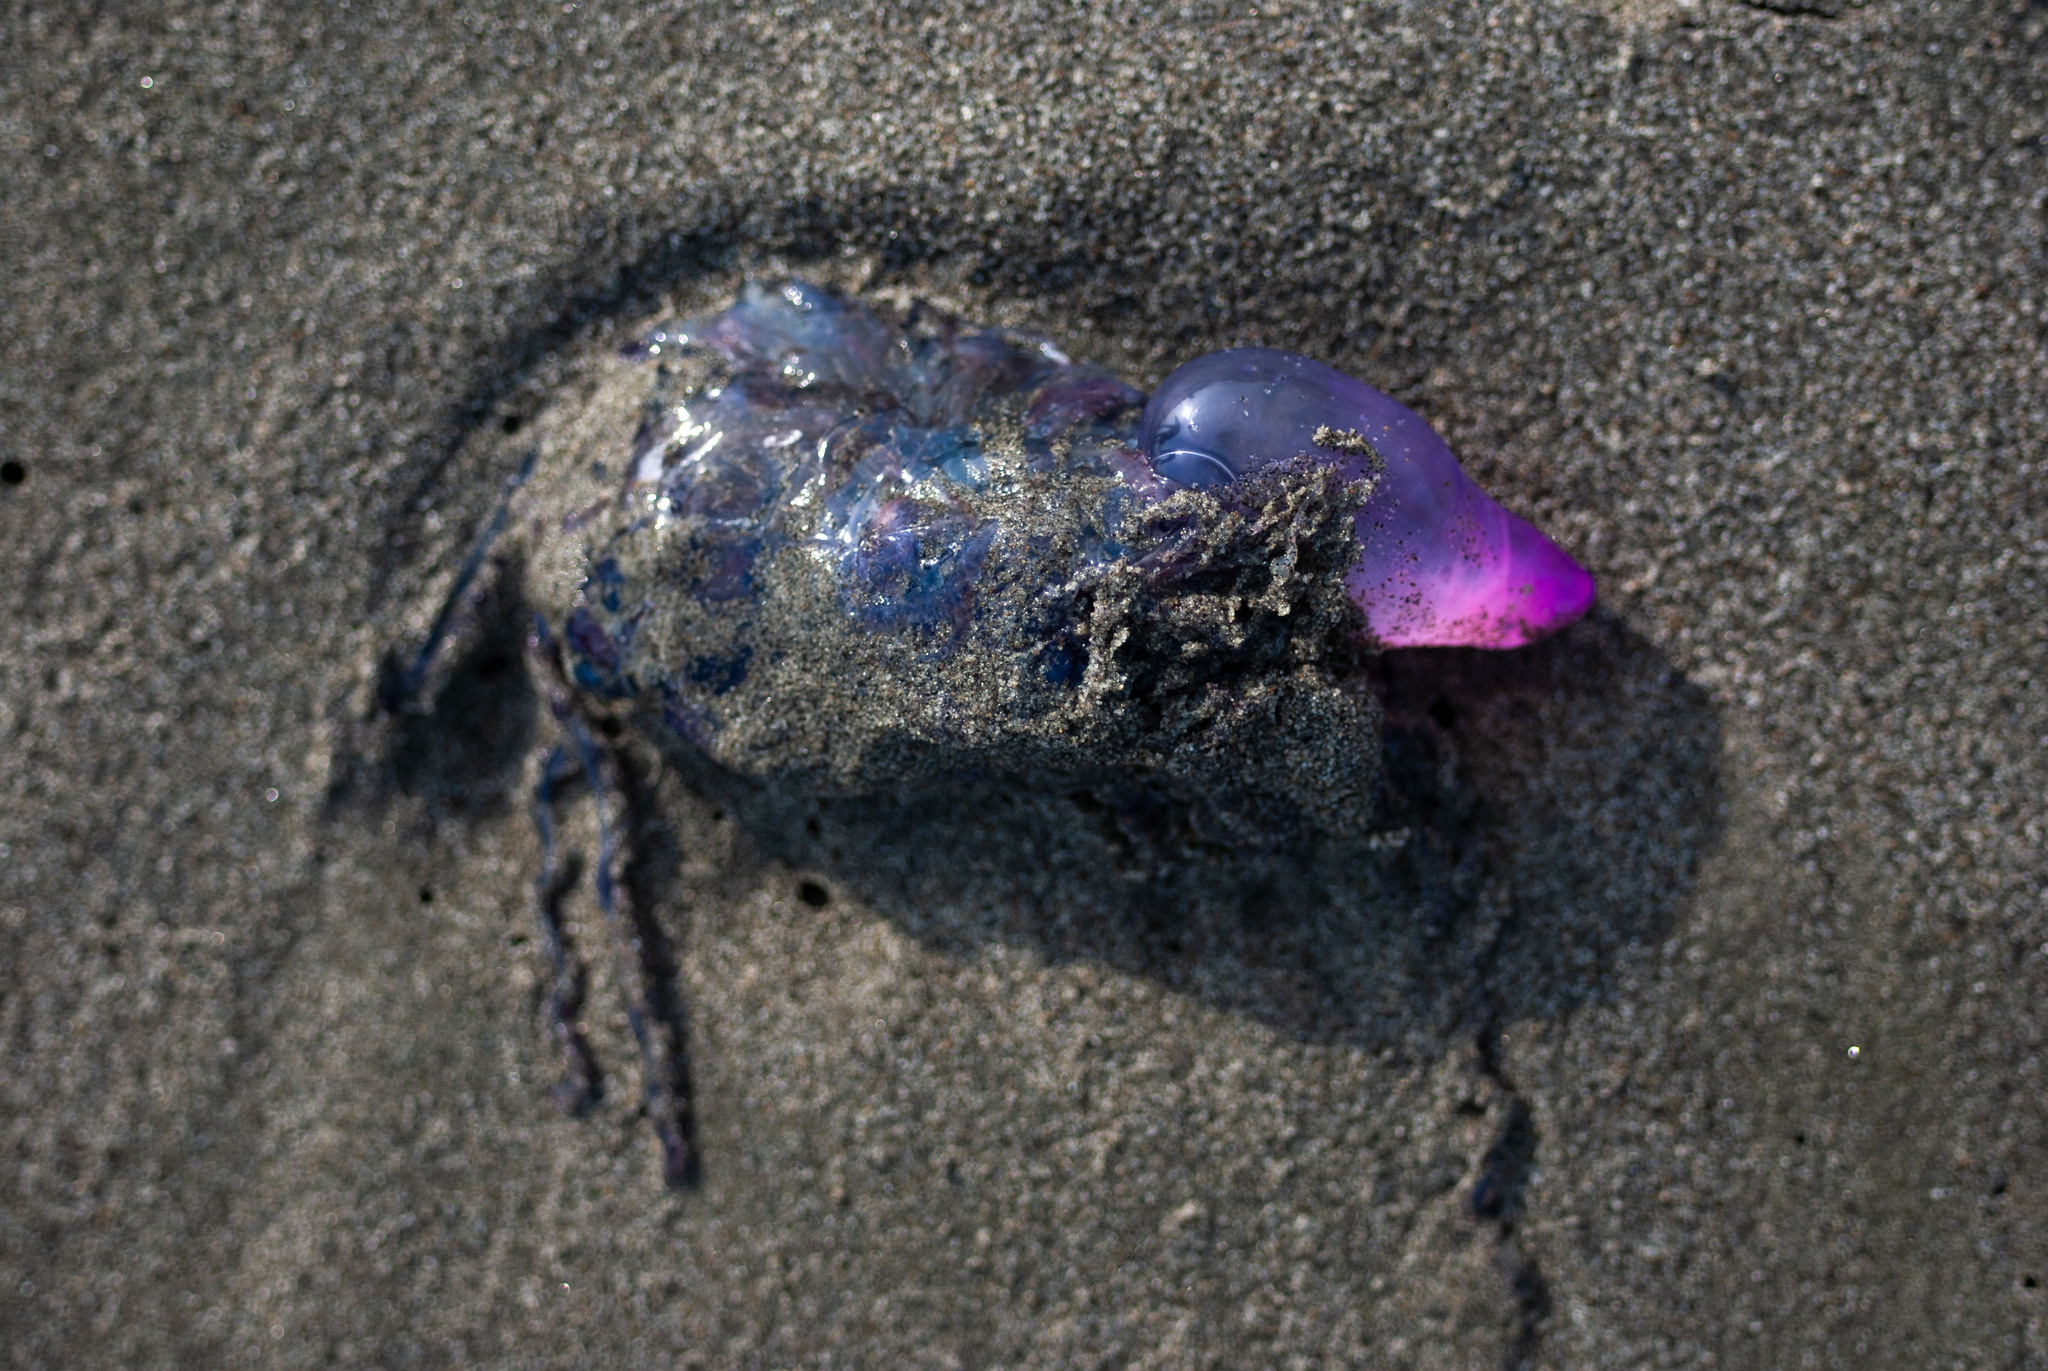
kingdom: Animalia
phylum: Cnidaria
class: Hydrozoa
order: Siphonophorae
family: Physaliidae
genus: Physalia
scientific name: Physalia physalis
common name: Portuguese man-of-war
